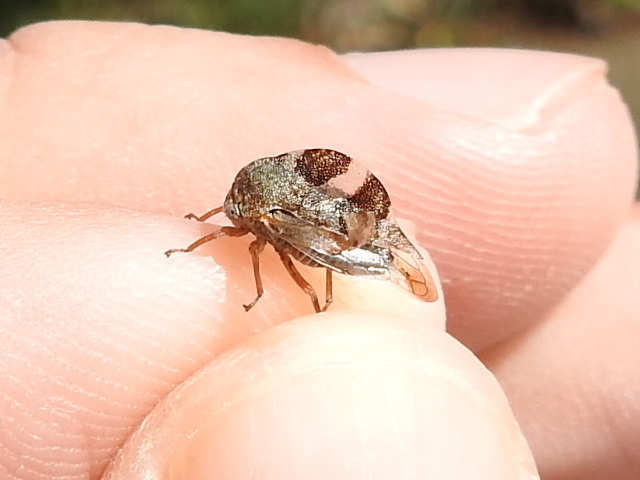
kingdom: Animalia
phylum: Arthropoda
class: Insecta
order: Hemiptera
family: Membracidae
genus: Cyrtolobus
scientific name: Cyrtolobus tuberosa
